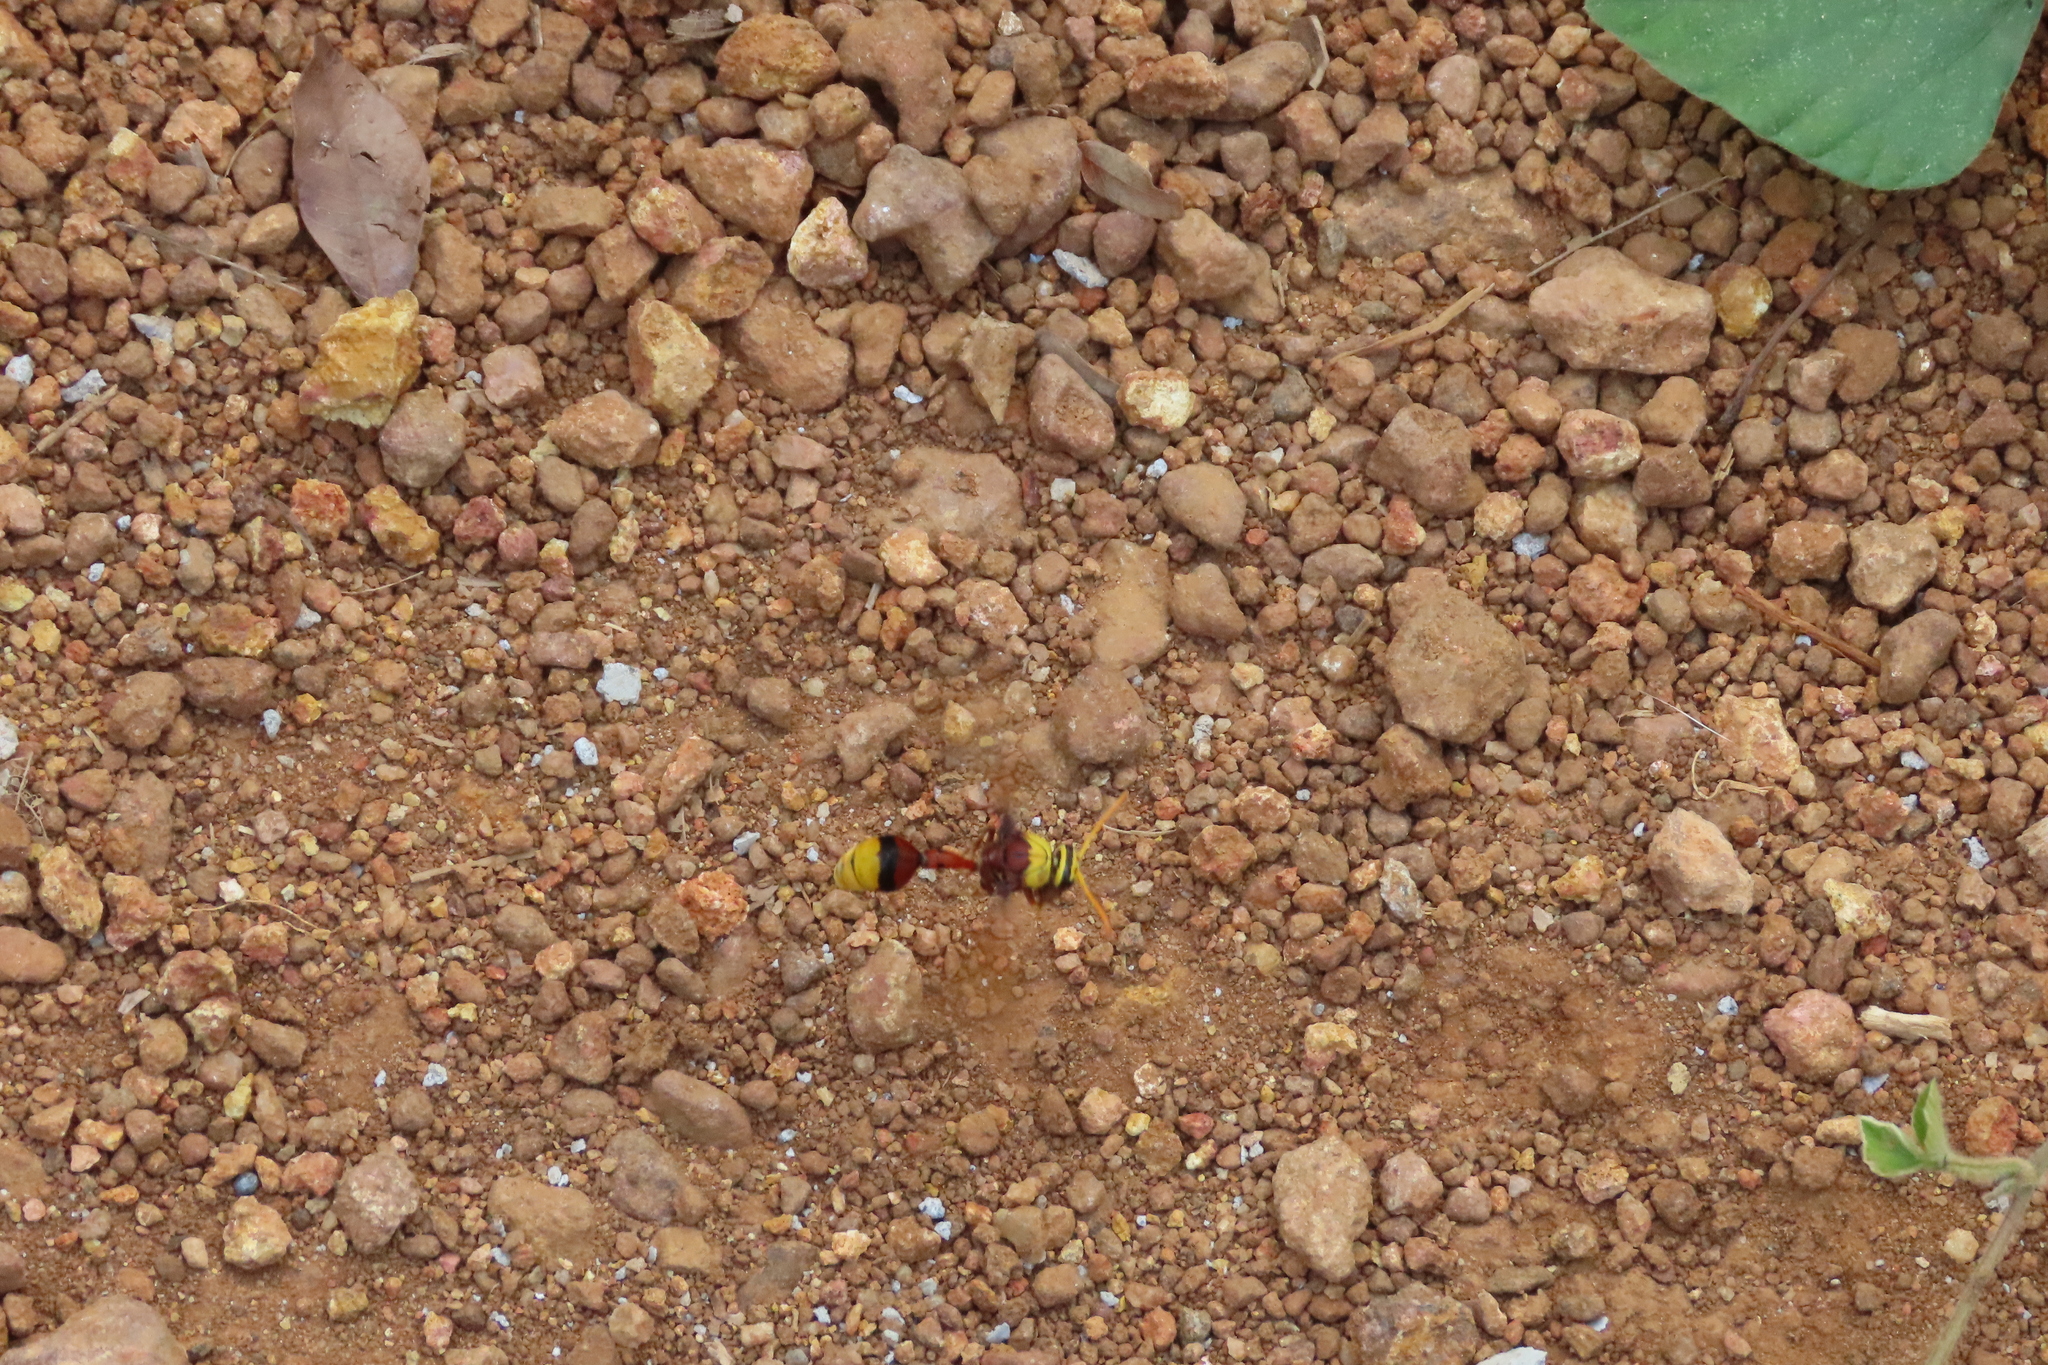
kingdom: Animalia
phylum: Arthropoda
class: Insecta
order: Hymenoptera
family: Eumenidae
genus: Delta
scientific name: Delta pyriforme
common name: Wasp
